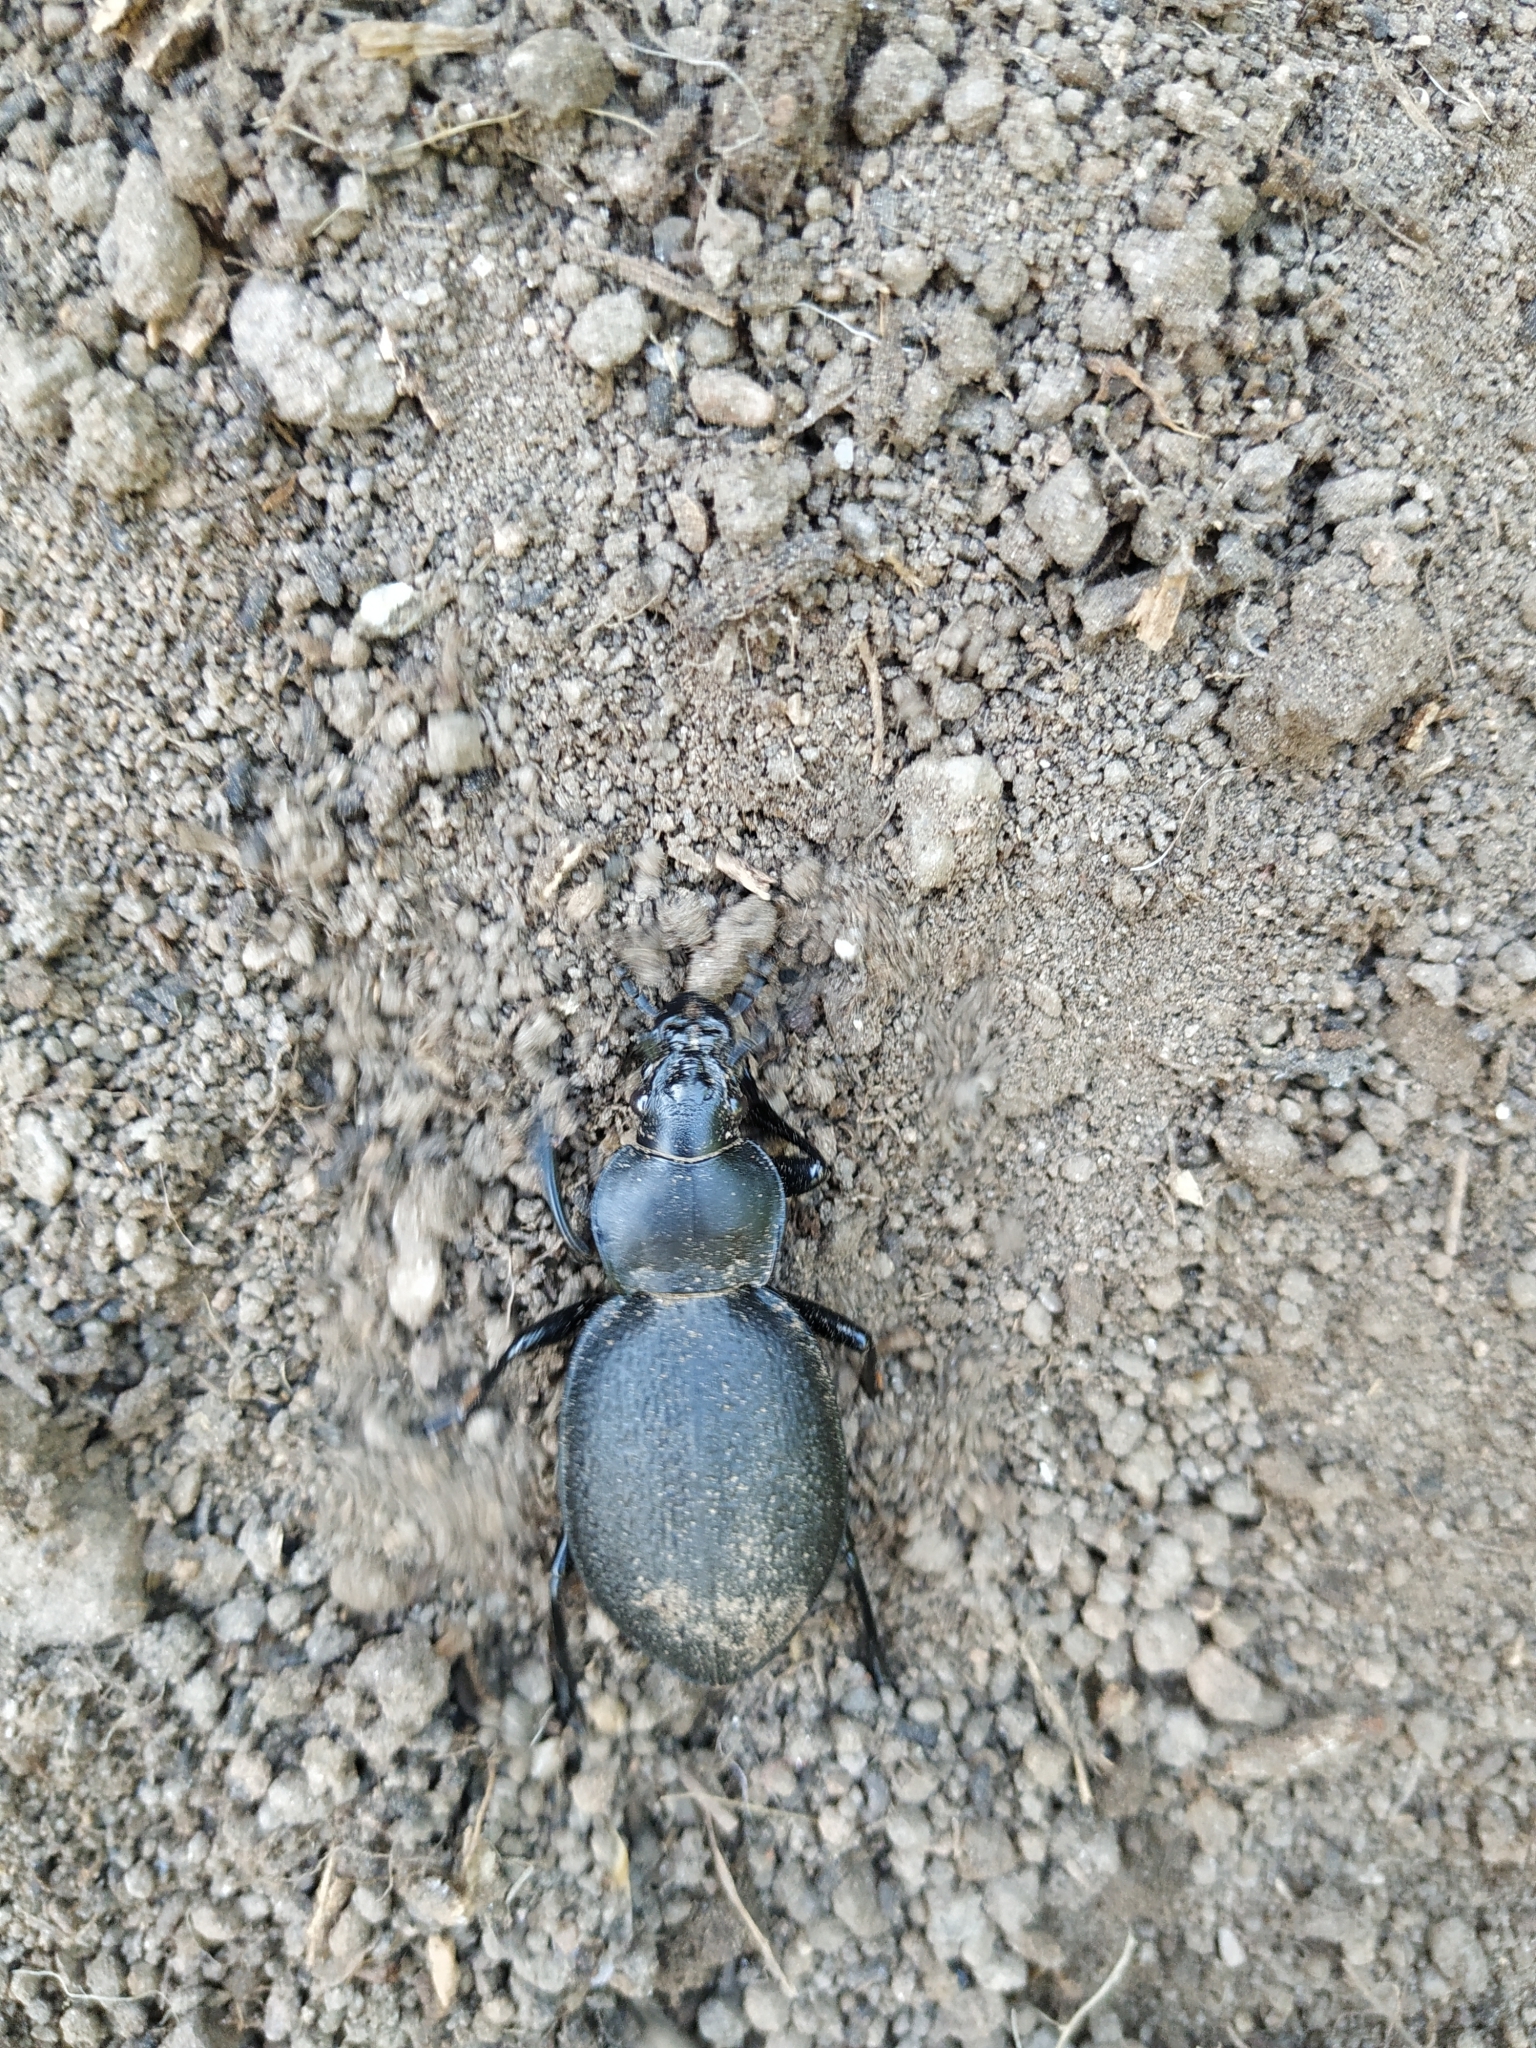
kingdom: Animalia
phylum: Arthropoda
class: Insecta
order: Coleoptera
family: Carabidae
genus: Carabus
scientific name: Carabus coriaceus
